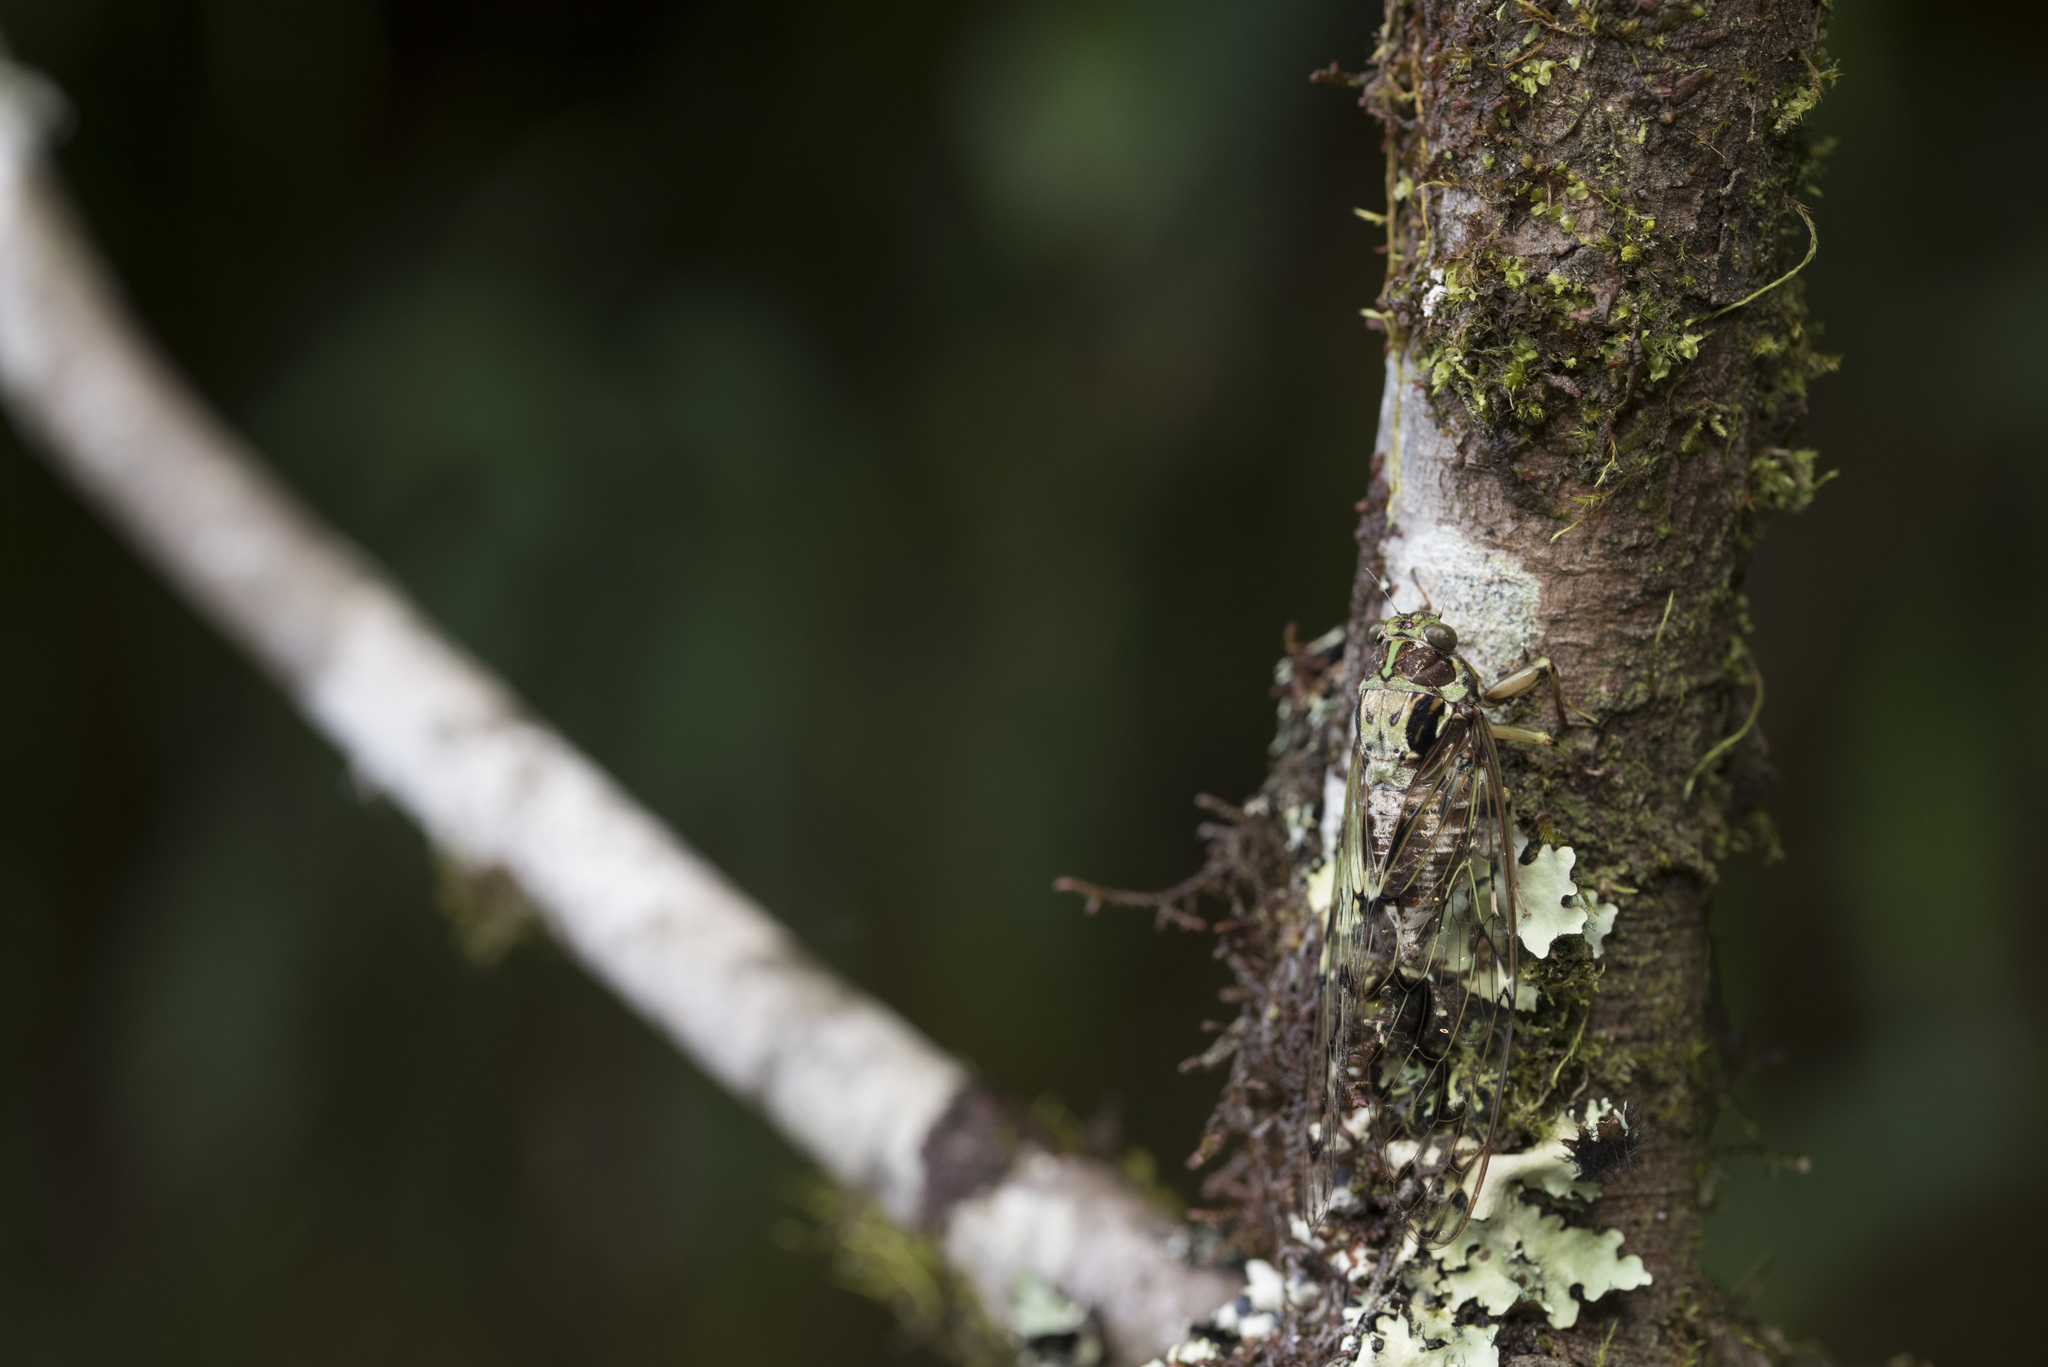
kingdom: Animalia
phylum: Arthropoda
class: Insecta
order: Hemiptera
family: Cicadidae
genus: Tanna
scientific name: Tanna ornatipennis
